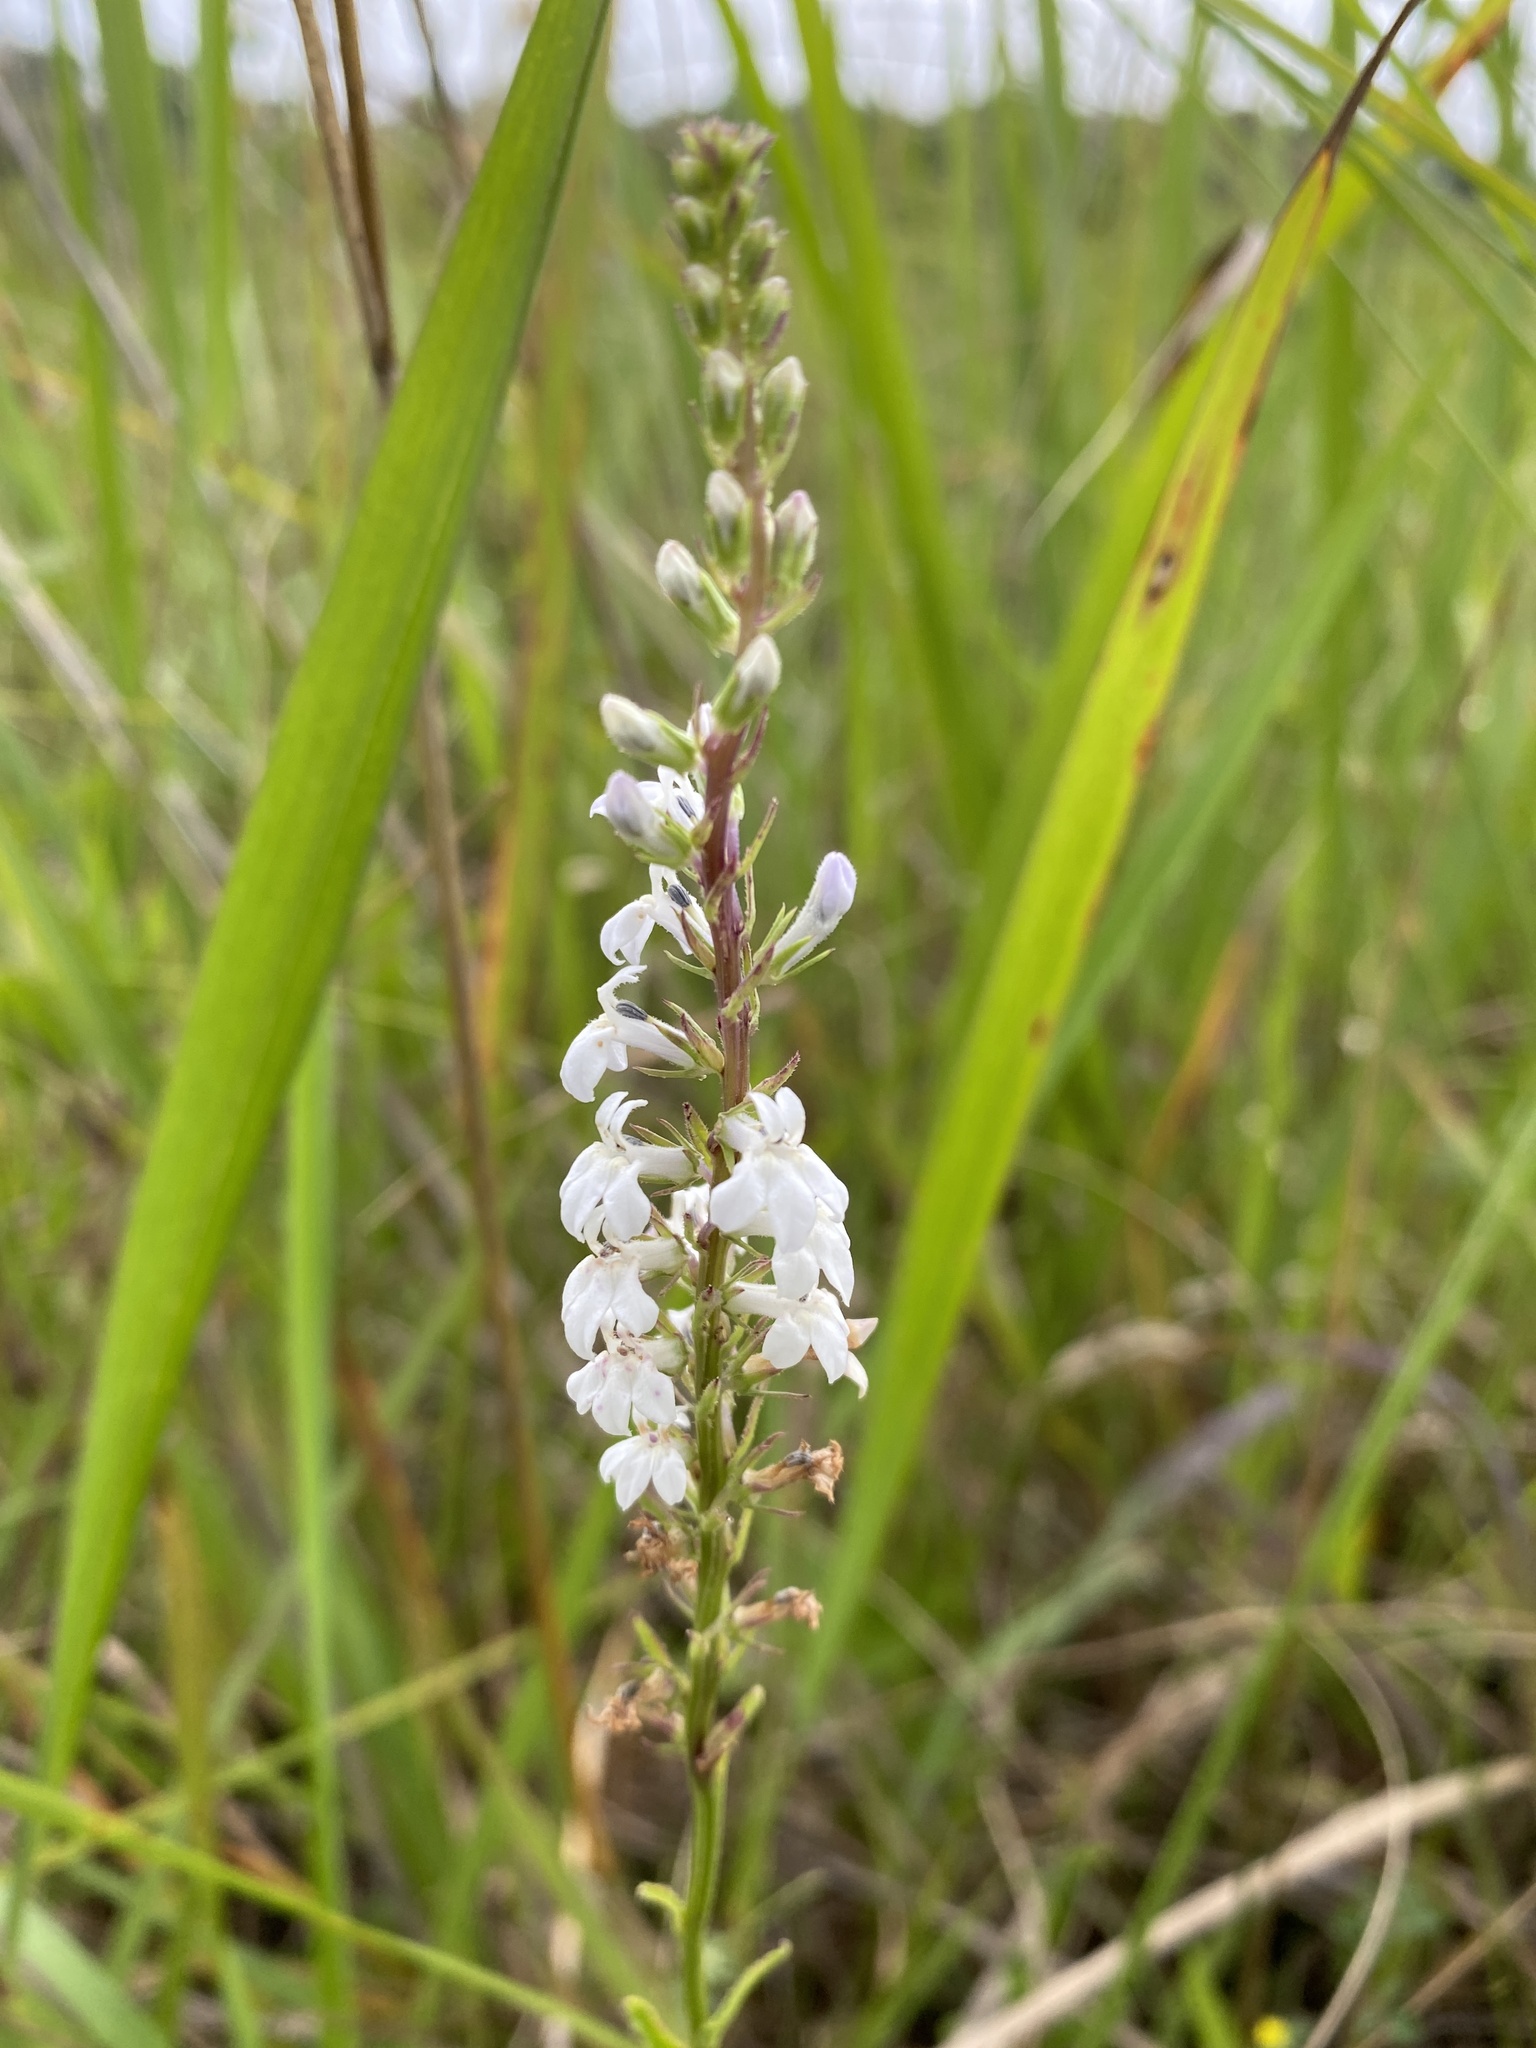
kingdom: Plantae
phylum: Tracheophyta
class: Magnoliopsida
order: Asterales
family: Campanulaceae
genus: Lobelia
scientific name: Lobelia spicata
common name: Pale-spike lobelia
